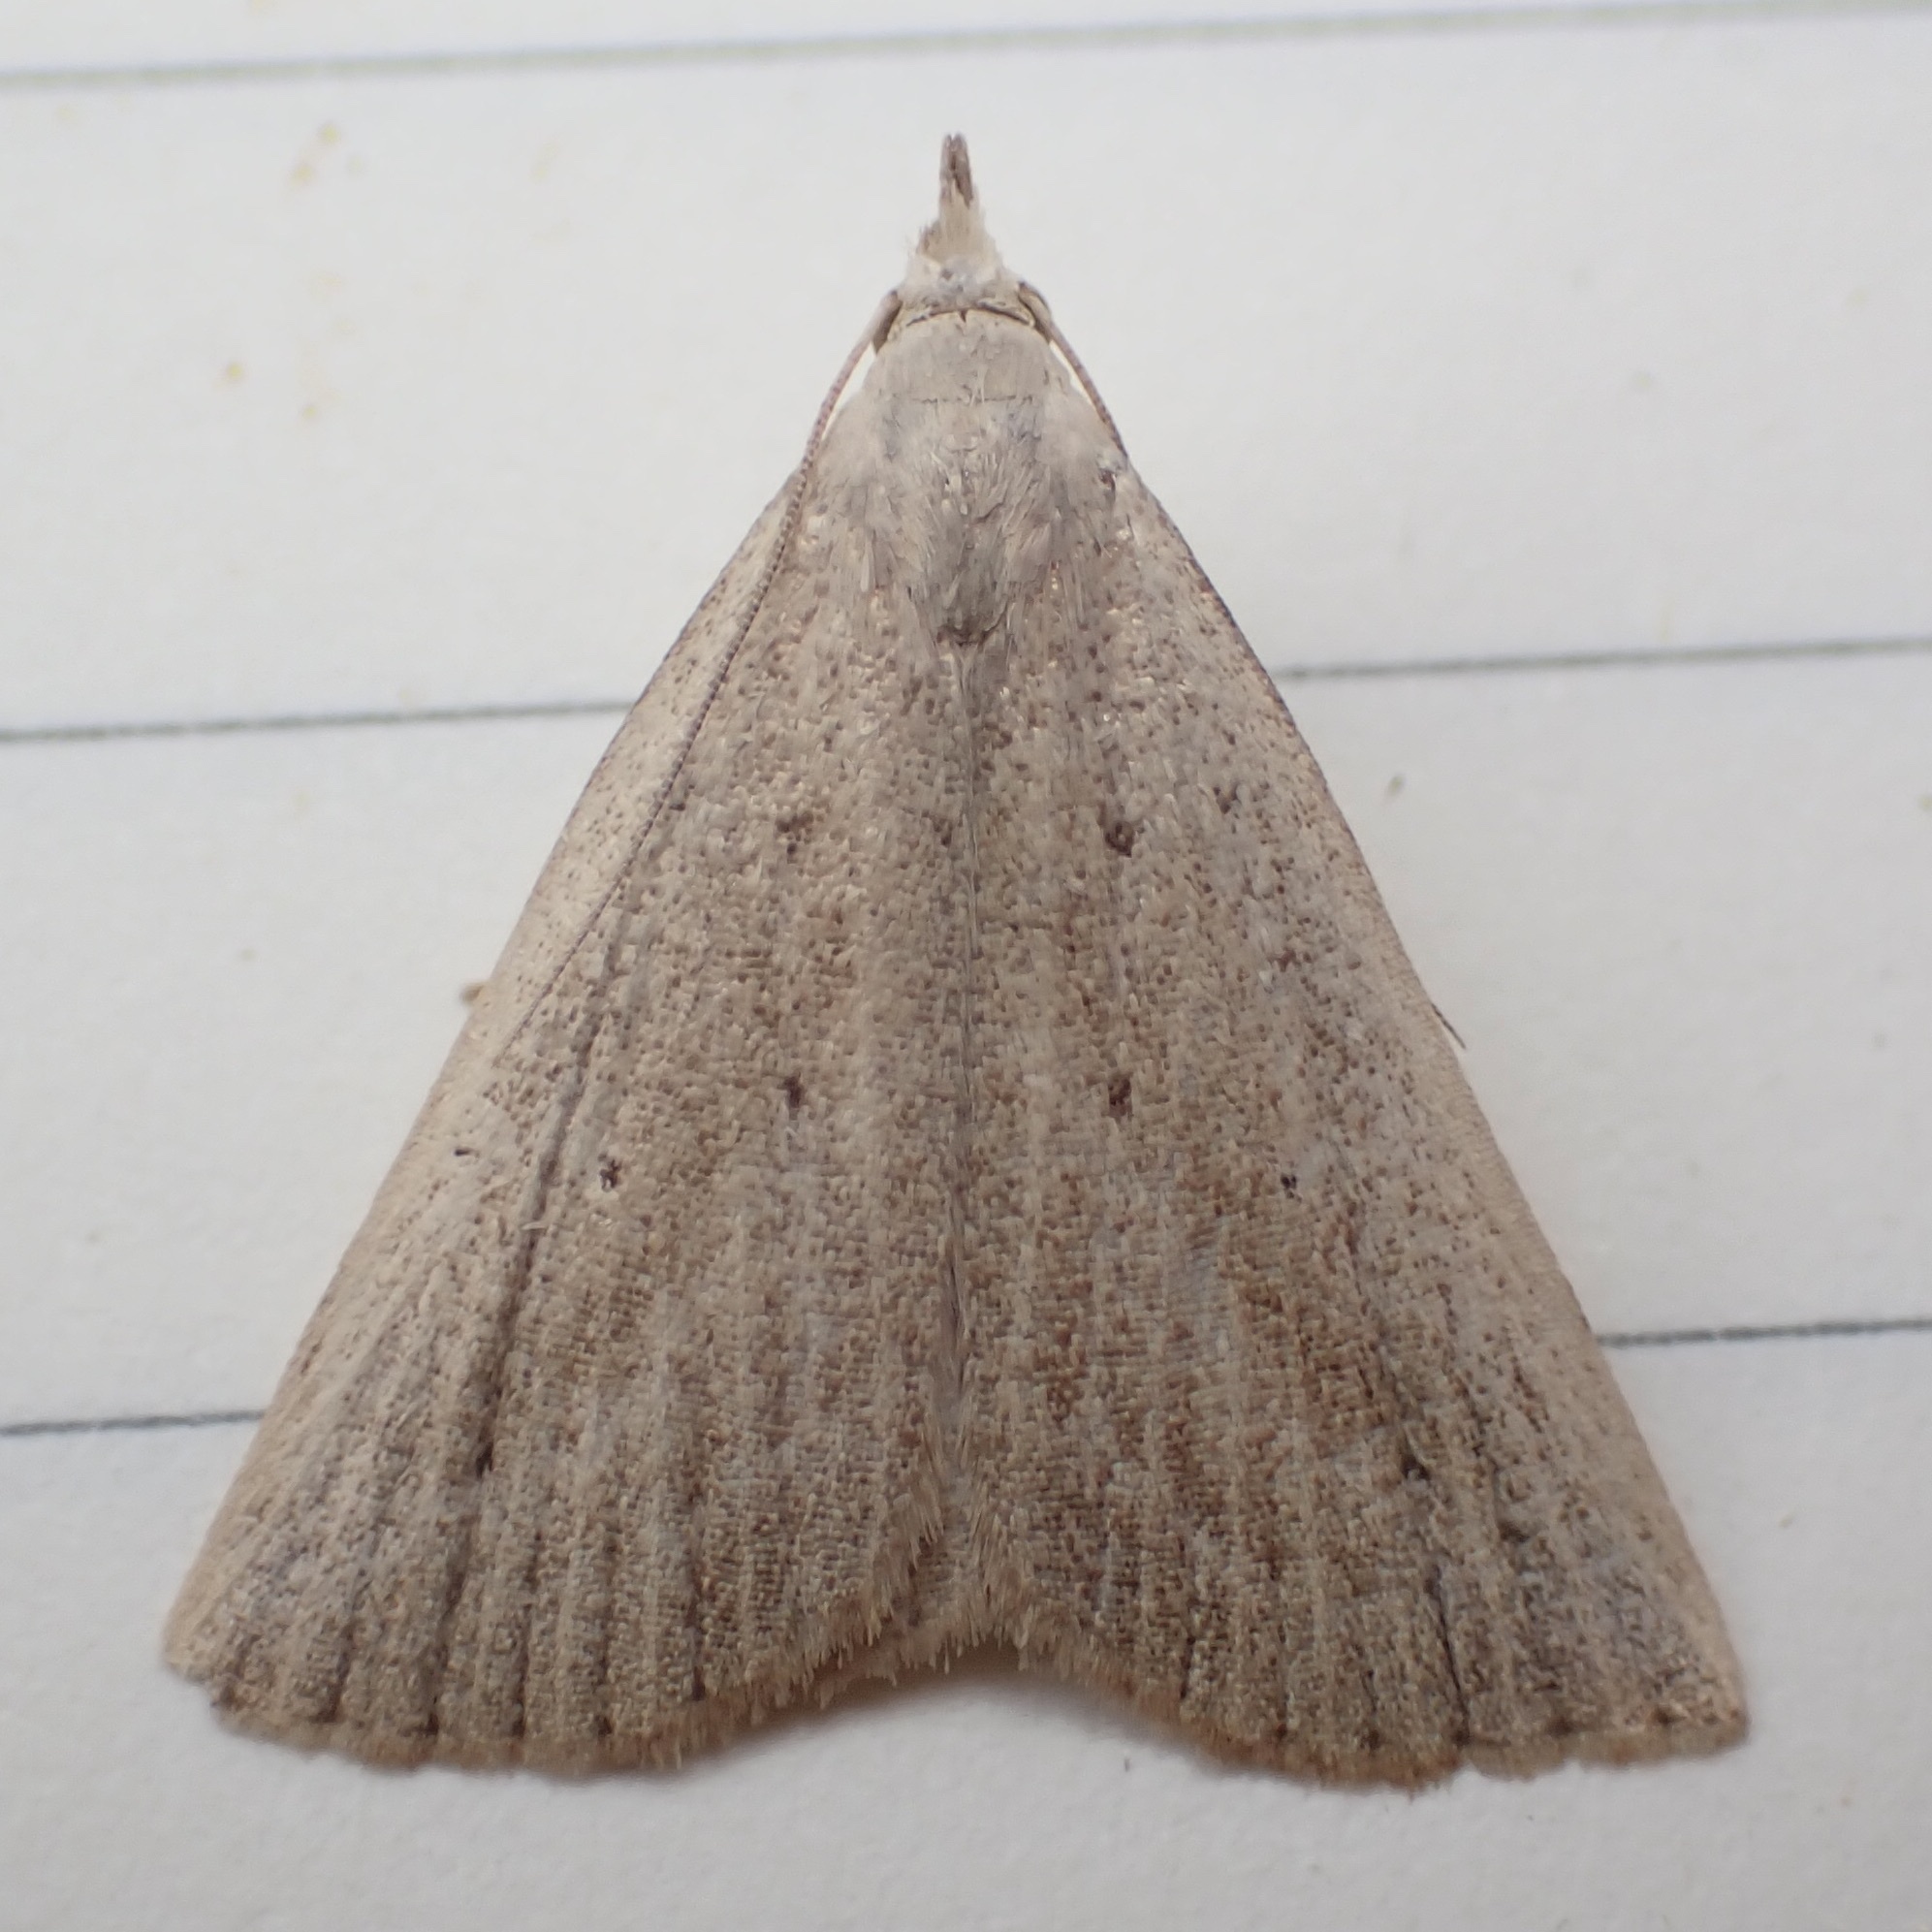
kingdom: Animalia
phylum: Arthropoda
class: Insecta
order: Lepidoptera
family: Erebidae
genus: Macrochilo
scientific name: Macrochilo louisiana
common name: Louisiana macrochilo
